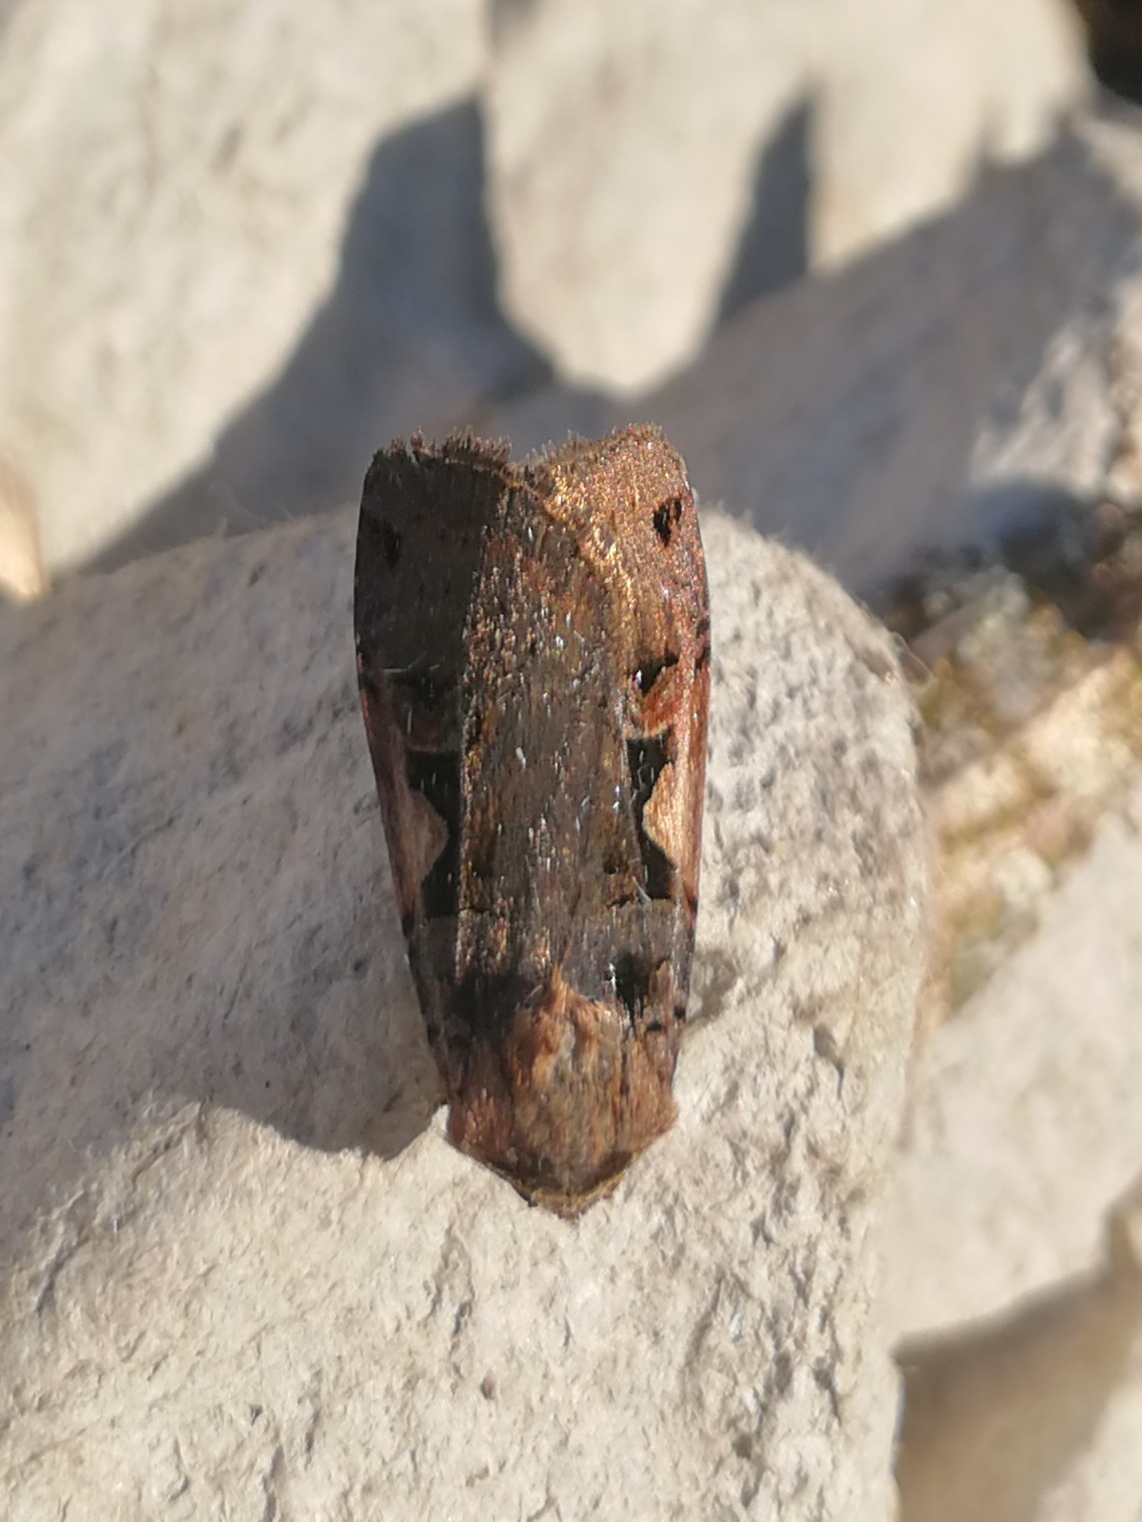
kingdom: Animalia
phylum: Arthropoda
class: Insecta
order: Lepidoptera
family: Noctuidae
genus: Xestia
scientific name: Xestia c-nigrum
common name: Setaceous hebrew character
